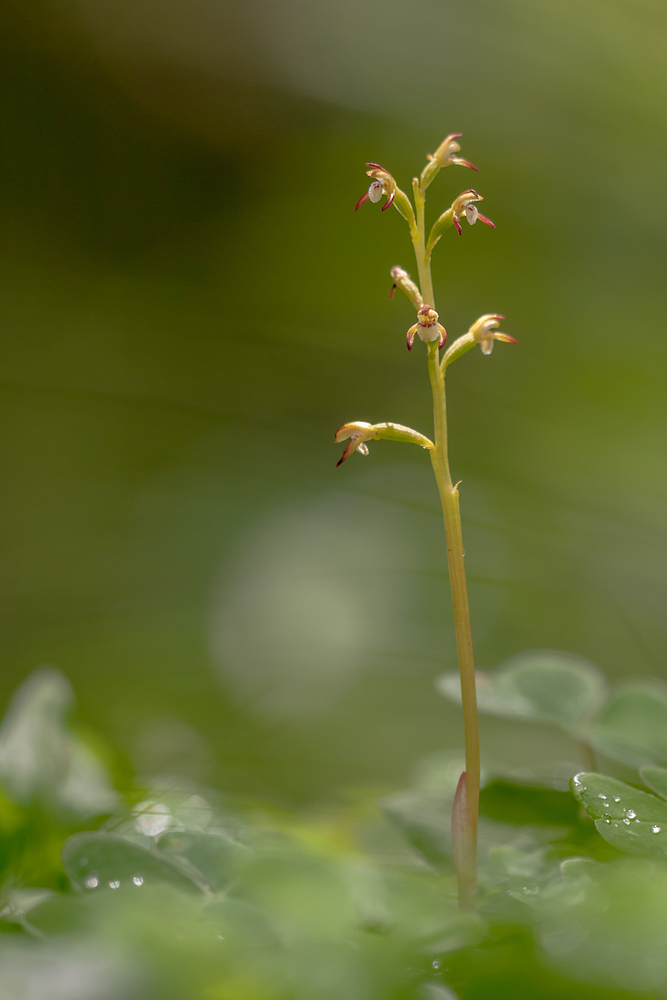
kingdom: Plantae
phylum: Tracheophyta
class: Liliopsida
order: Asparagales
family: Orchidaceae
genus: Corallorhiza
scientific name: Corallorhiza trifida
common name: Yellow coralroot
